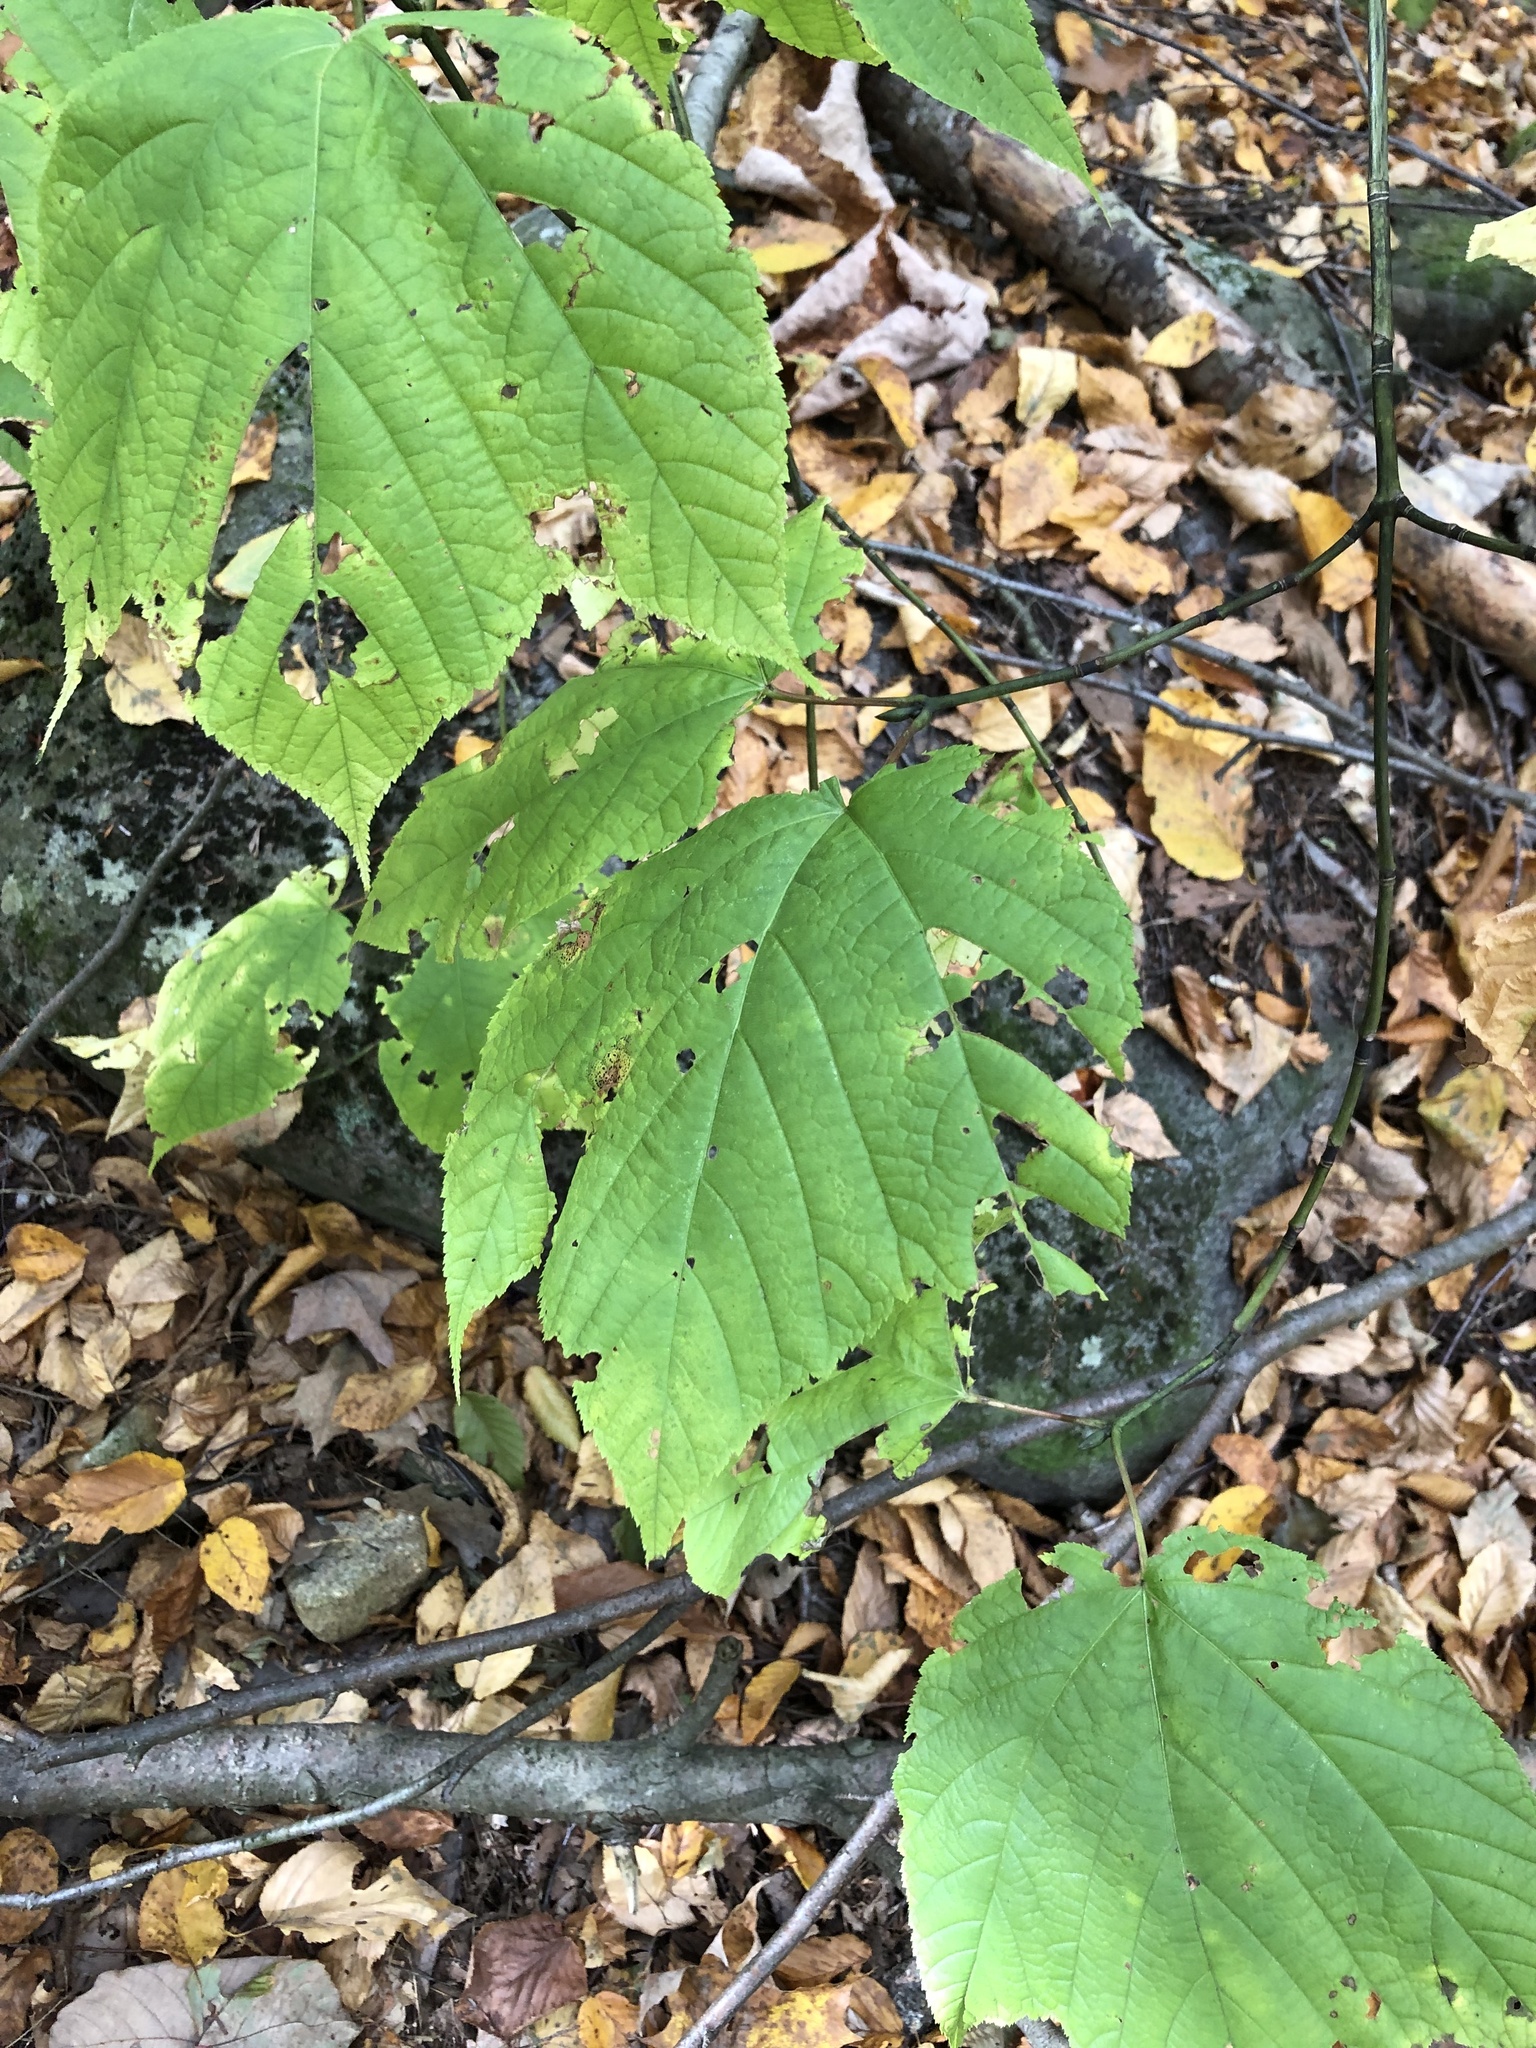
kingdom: Plantae
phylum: Tracheophyta
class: Magnoliopsida
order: Sapindales
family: Sapindaceae
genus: Acer
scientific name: Acer pensylvanicum
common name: Moosewood
